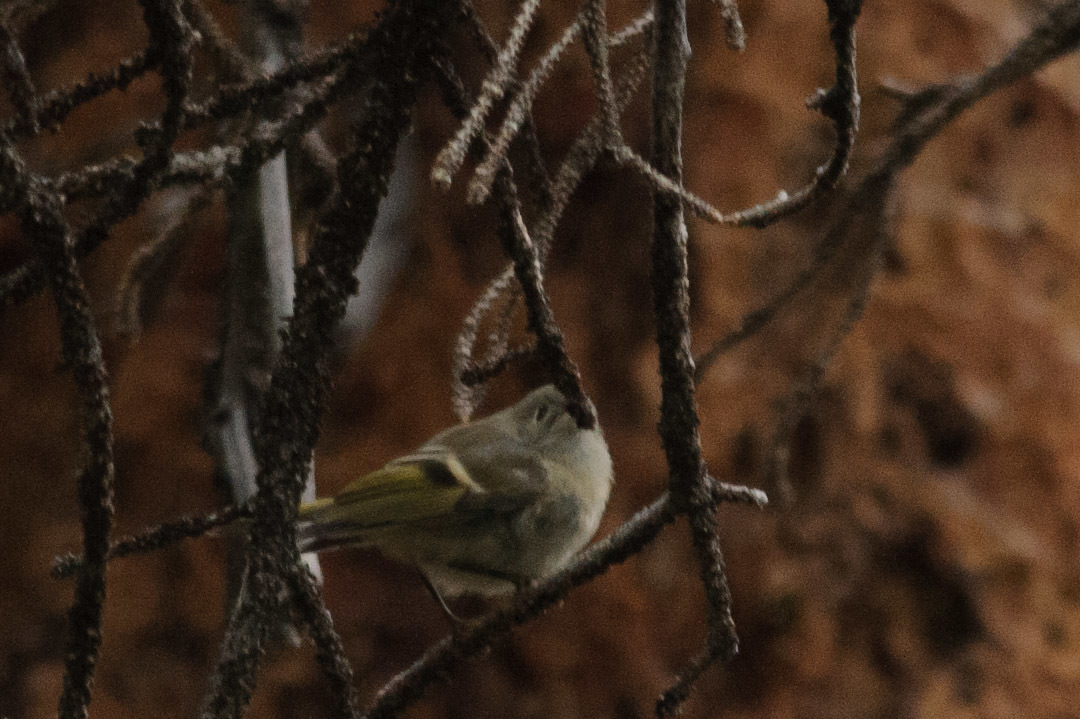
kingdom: Animalia
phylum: Chordata
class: Aves
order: Passeriformes
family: Regulidae
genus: Regulus
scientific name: Regulus calendula
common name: Ruby-crowned kinglet
